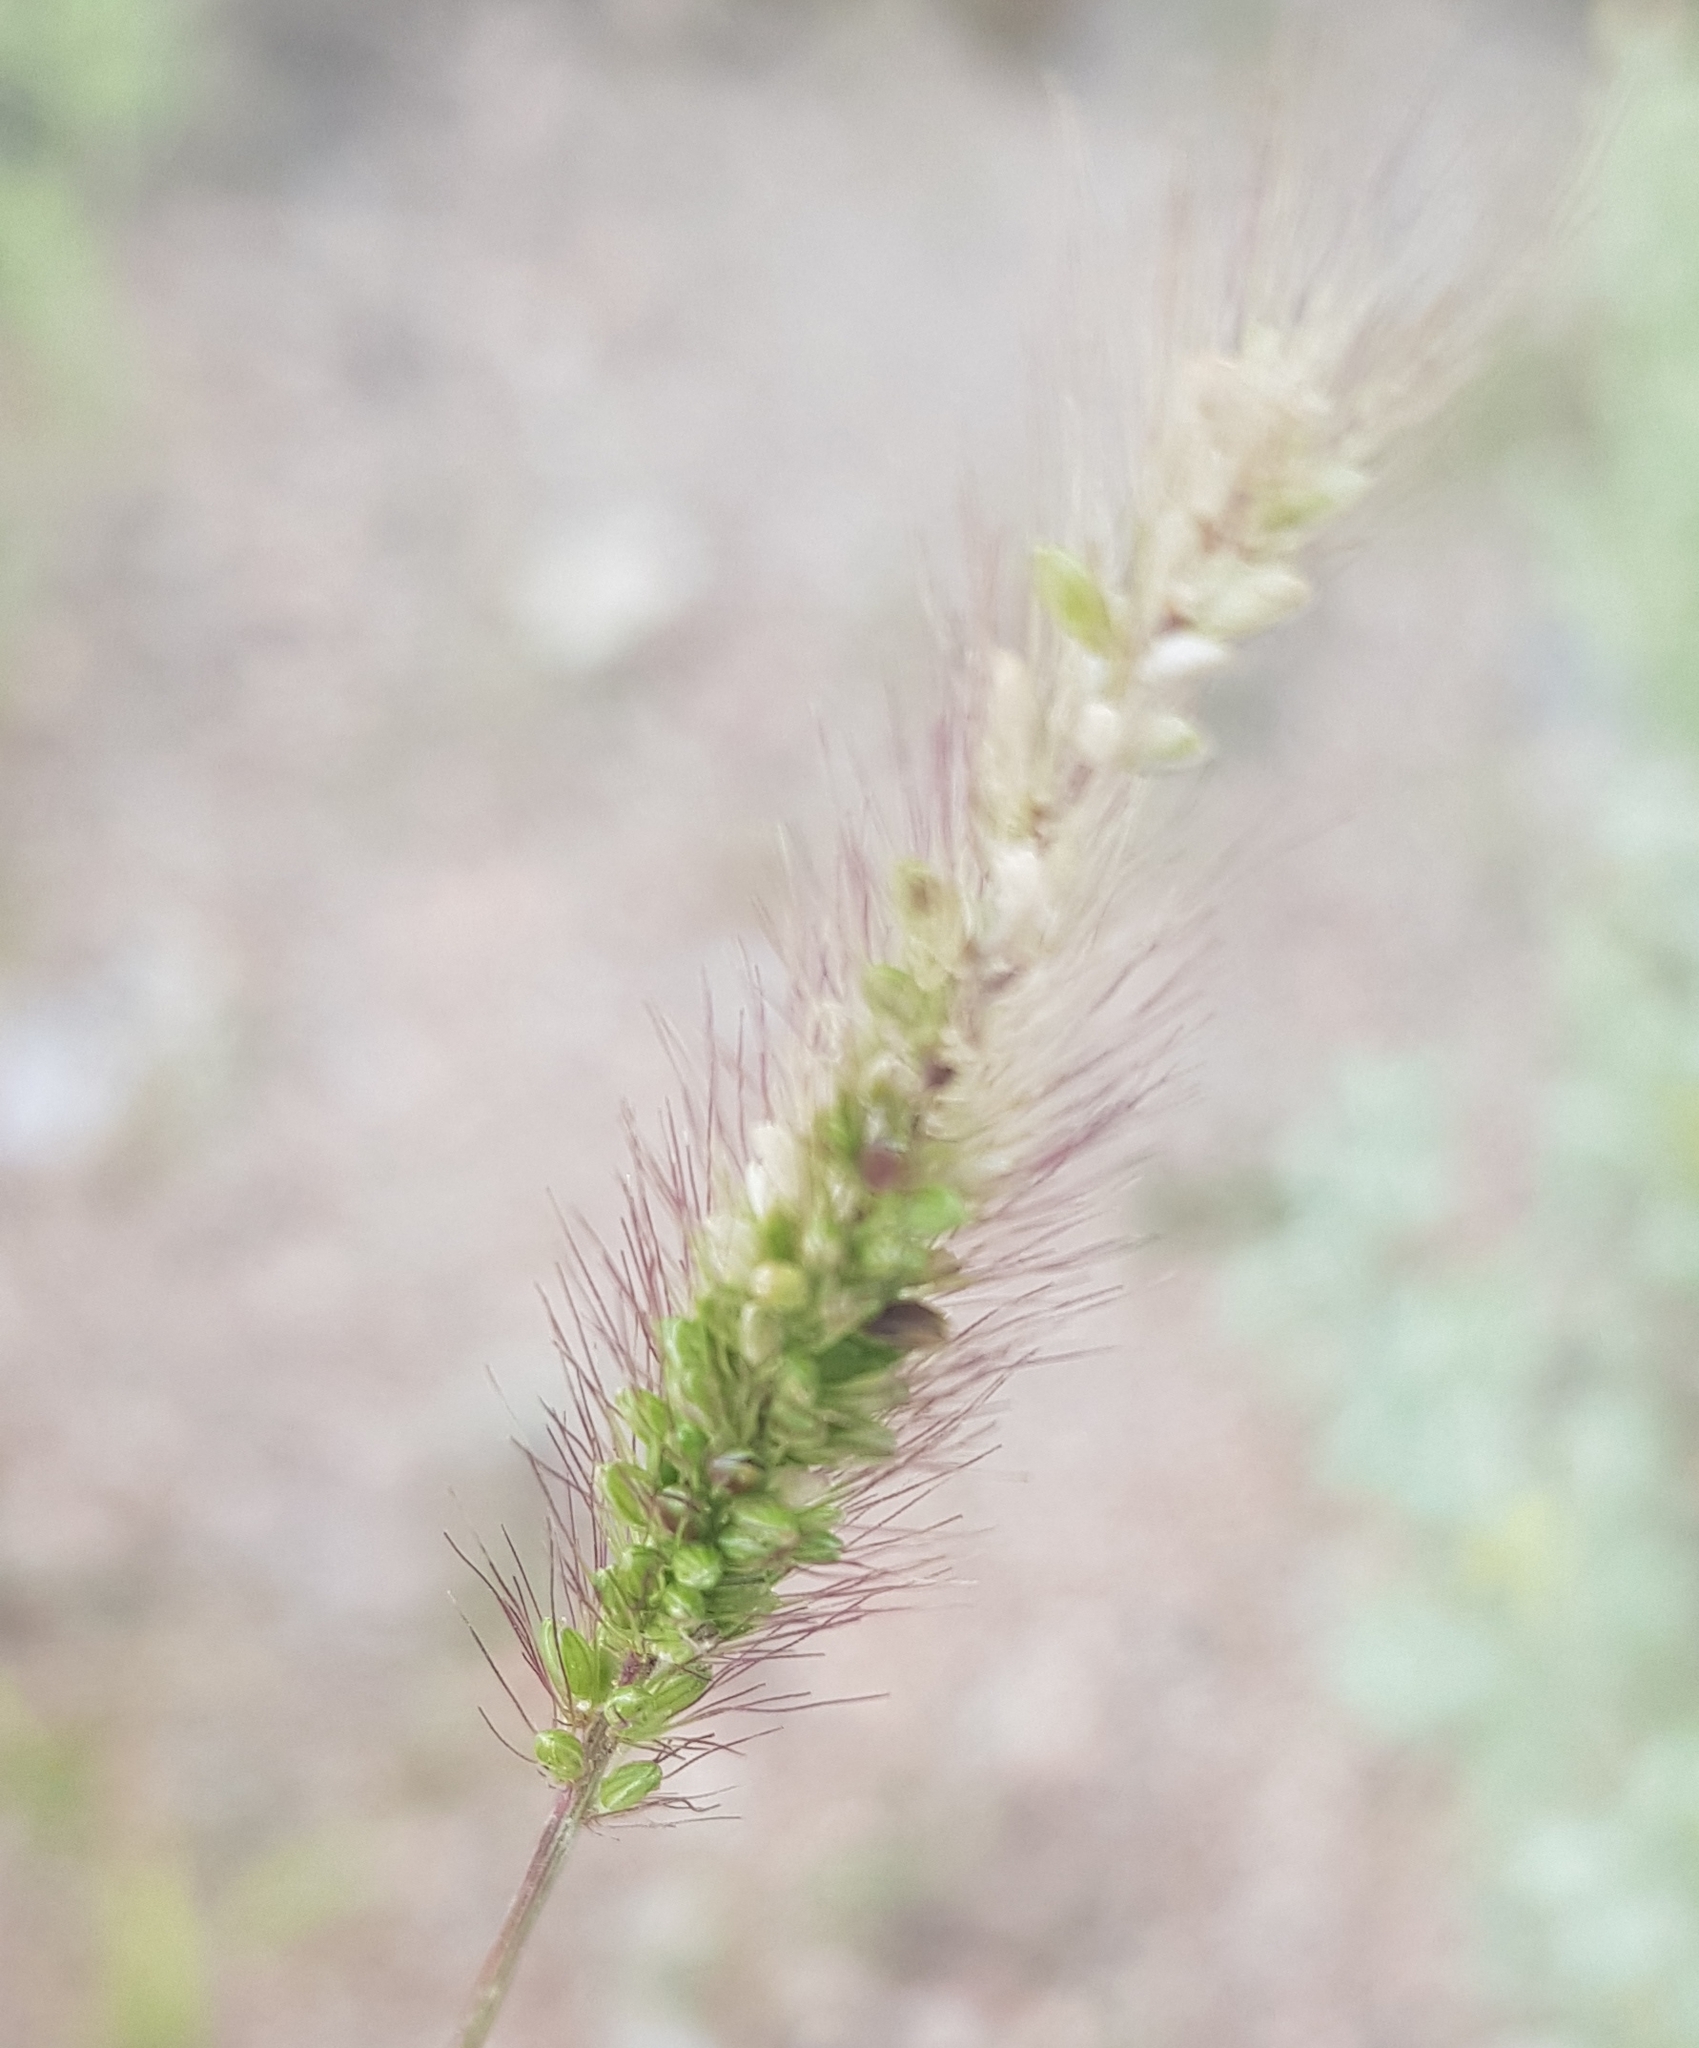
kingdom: Plantae
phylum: Tracheophyta
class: Liliopsida
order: Poales
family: Poaceae
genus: Setaria
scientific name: Setaria viridis
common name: Green bristlegrass
